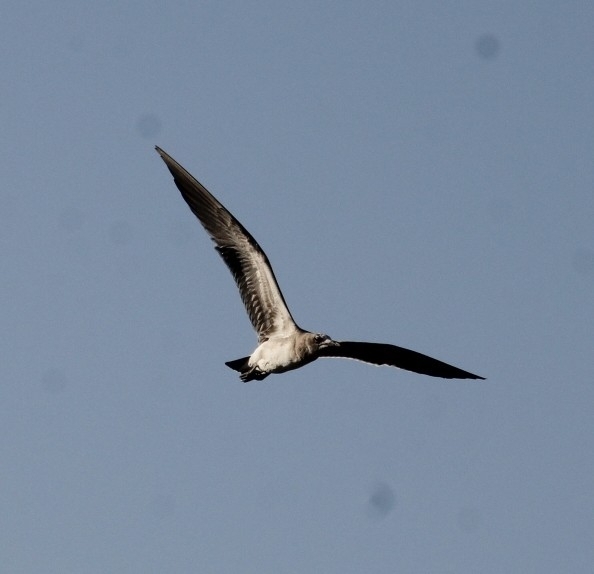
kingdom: Animalia
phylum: Chordata
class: Aves
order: Charadriiformes
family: Laridae
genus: Leucophaeus
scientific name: Leucophaeus atricilla
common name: Laughing gull
